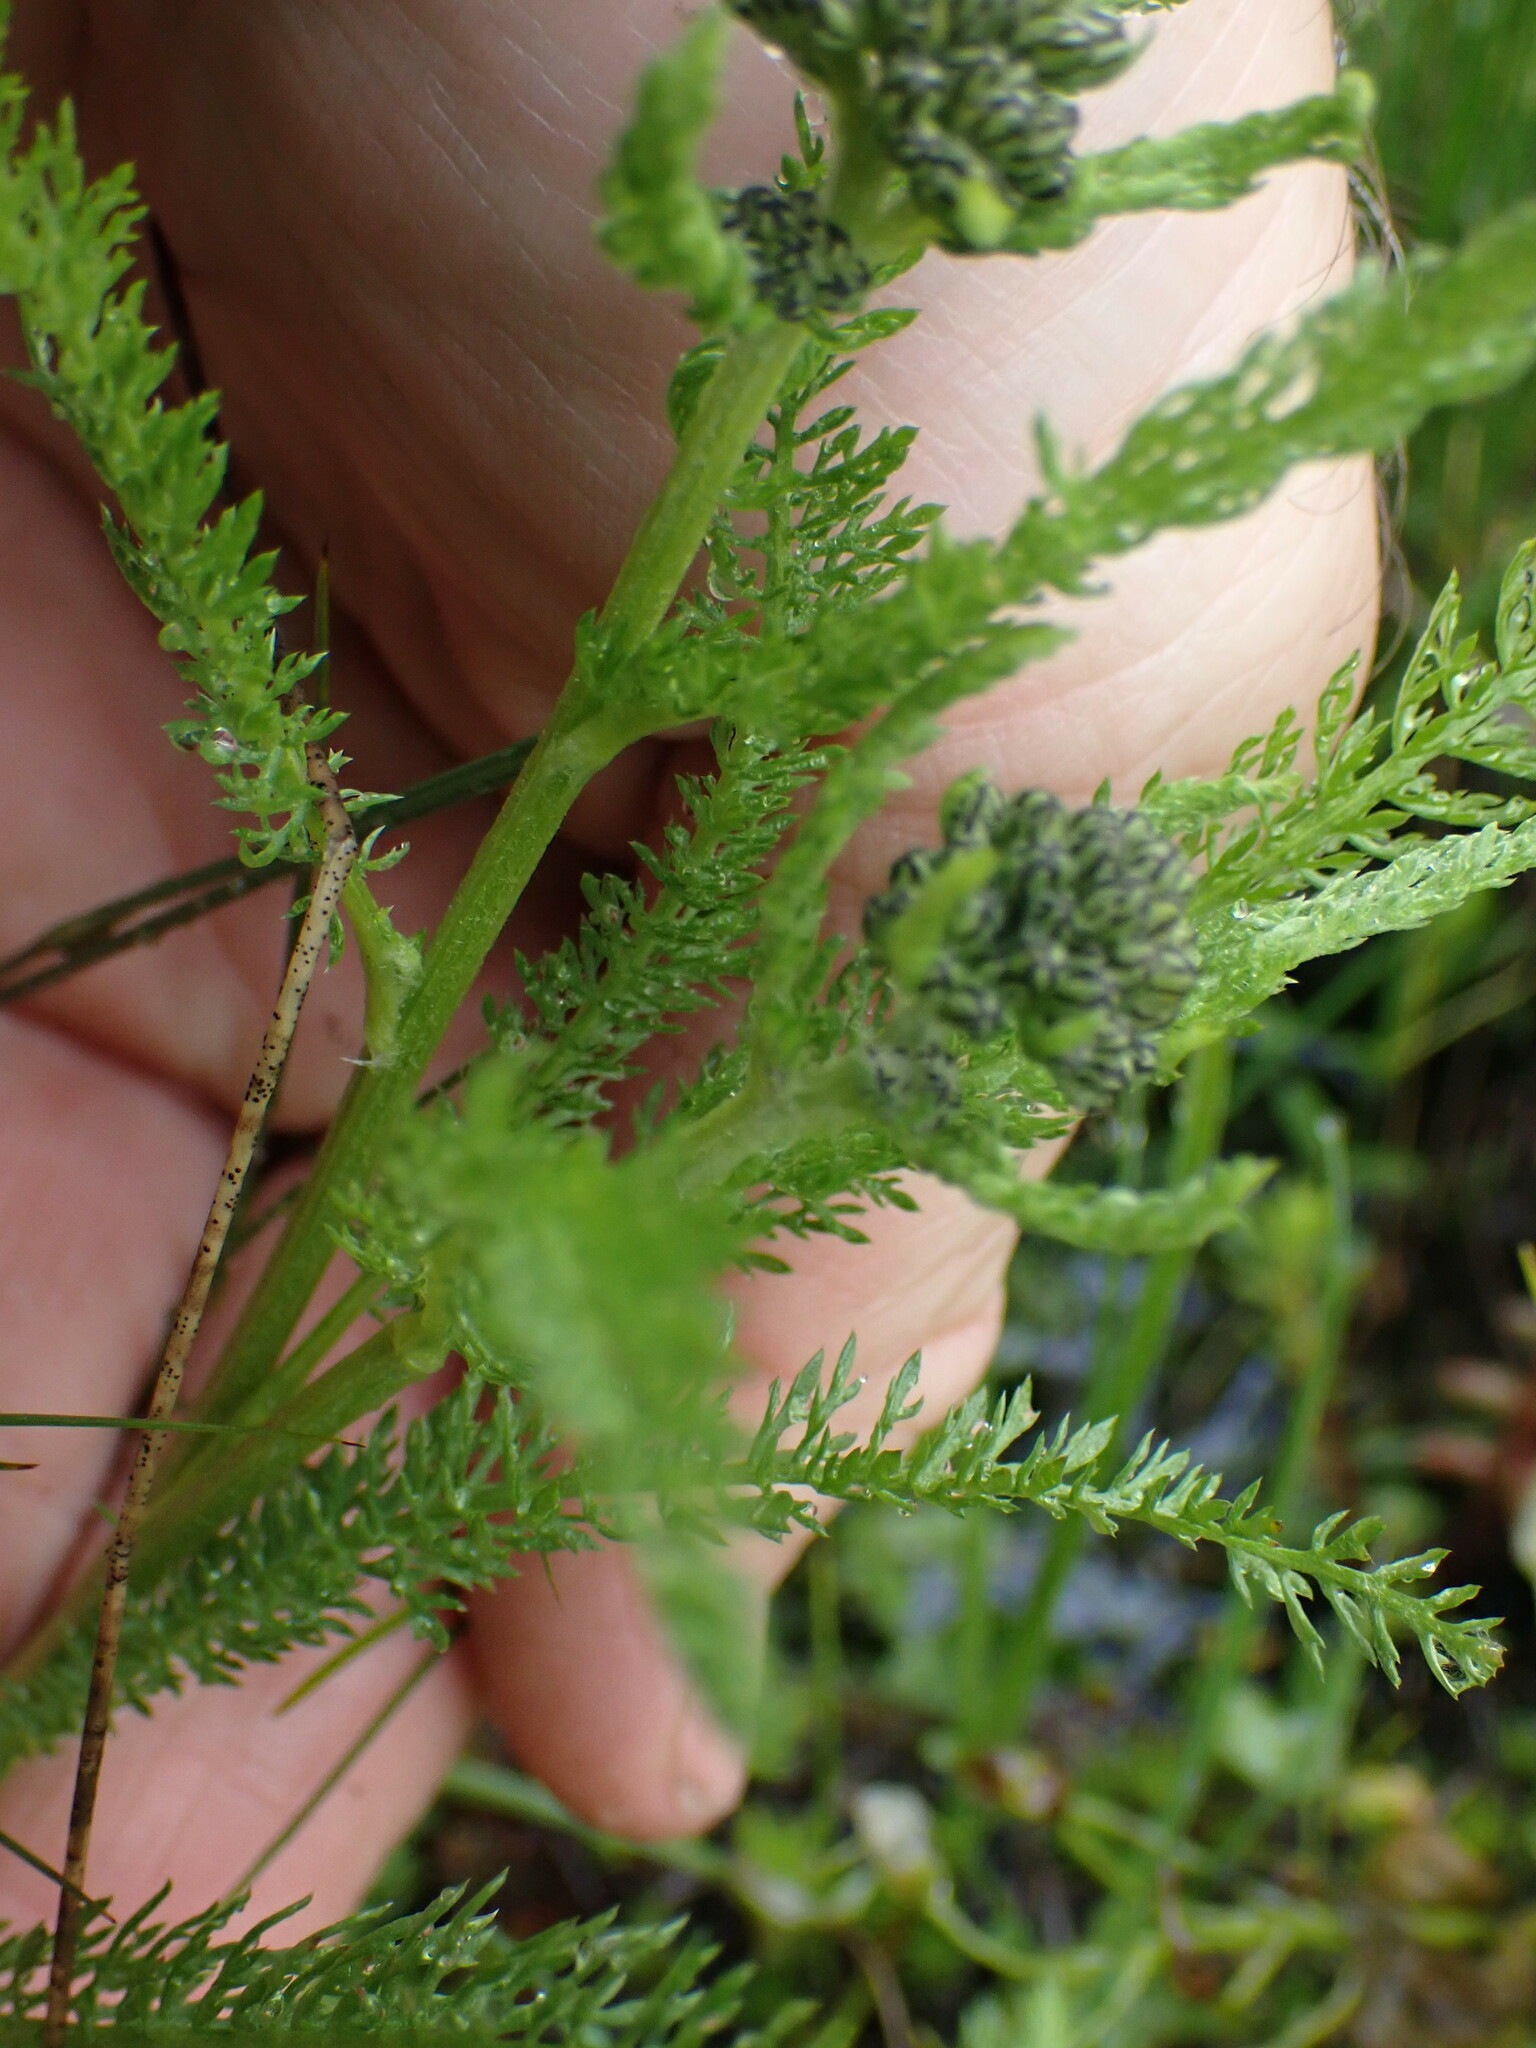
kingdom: Plantae
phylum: Tracheophyta
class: Magnoliopsida
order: Asterales
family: Asteraceae
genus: Achillea
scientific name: Achillea millefolium
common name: Yarrow
